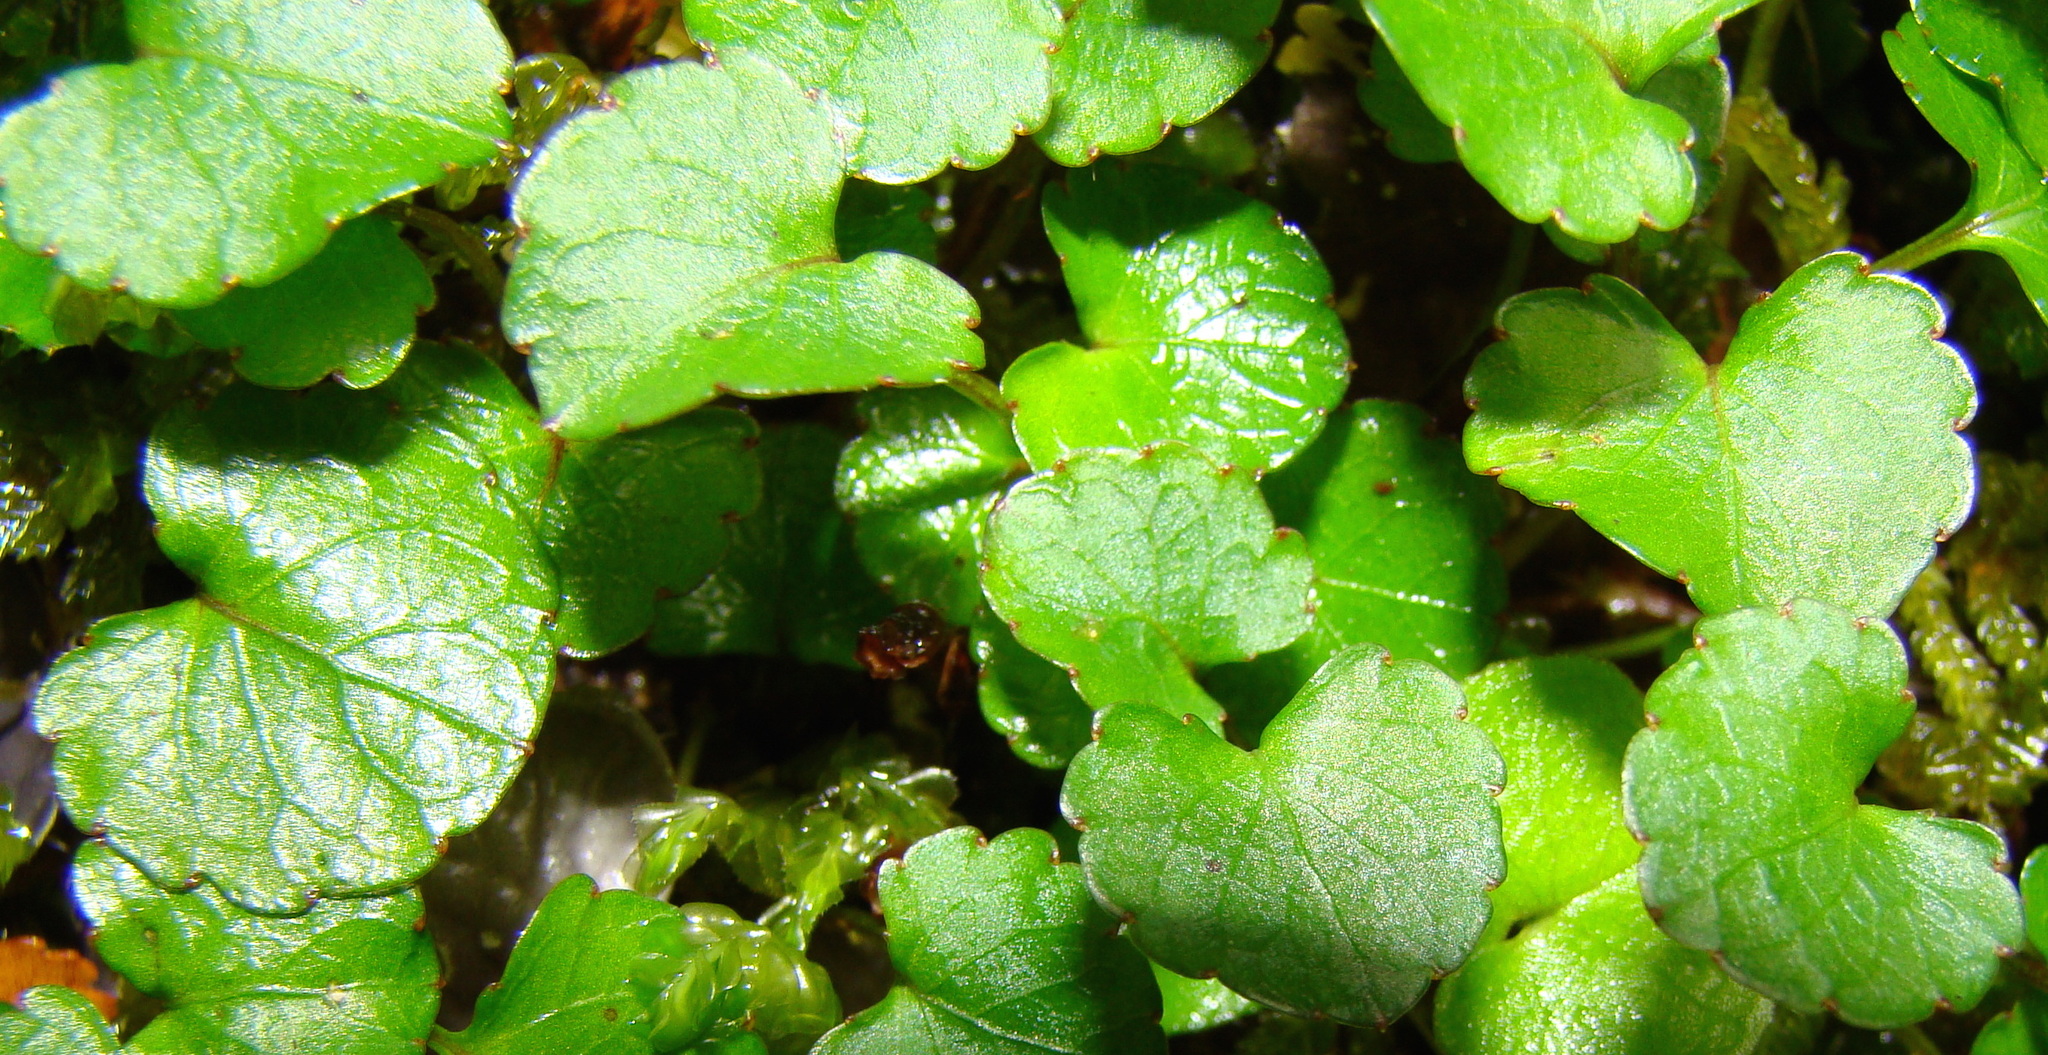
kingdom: Plantae
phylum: Tracheophyta
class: Magnoliopsida
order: Malpighiales
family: Violaceae
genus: Viola
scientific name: Viola filicaulis
